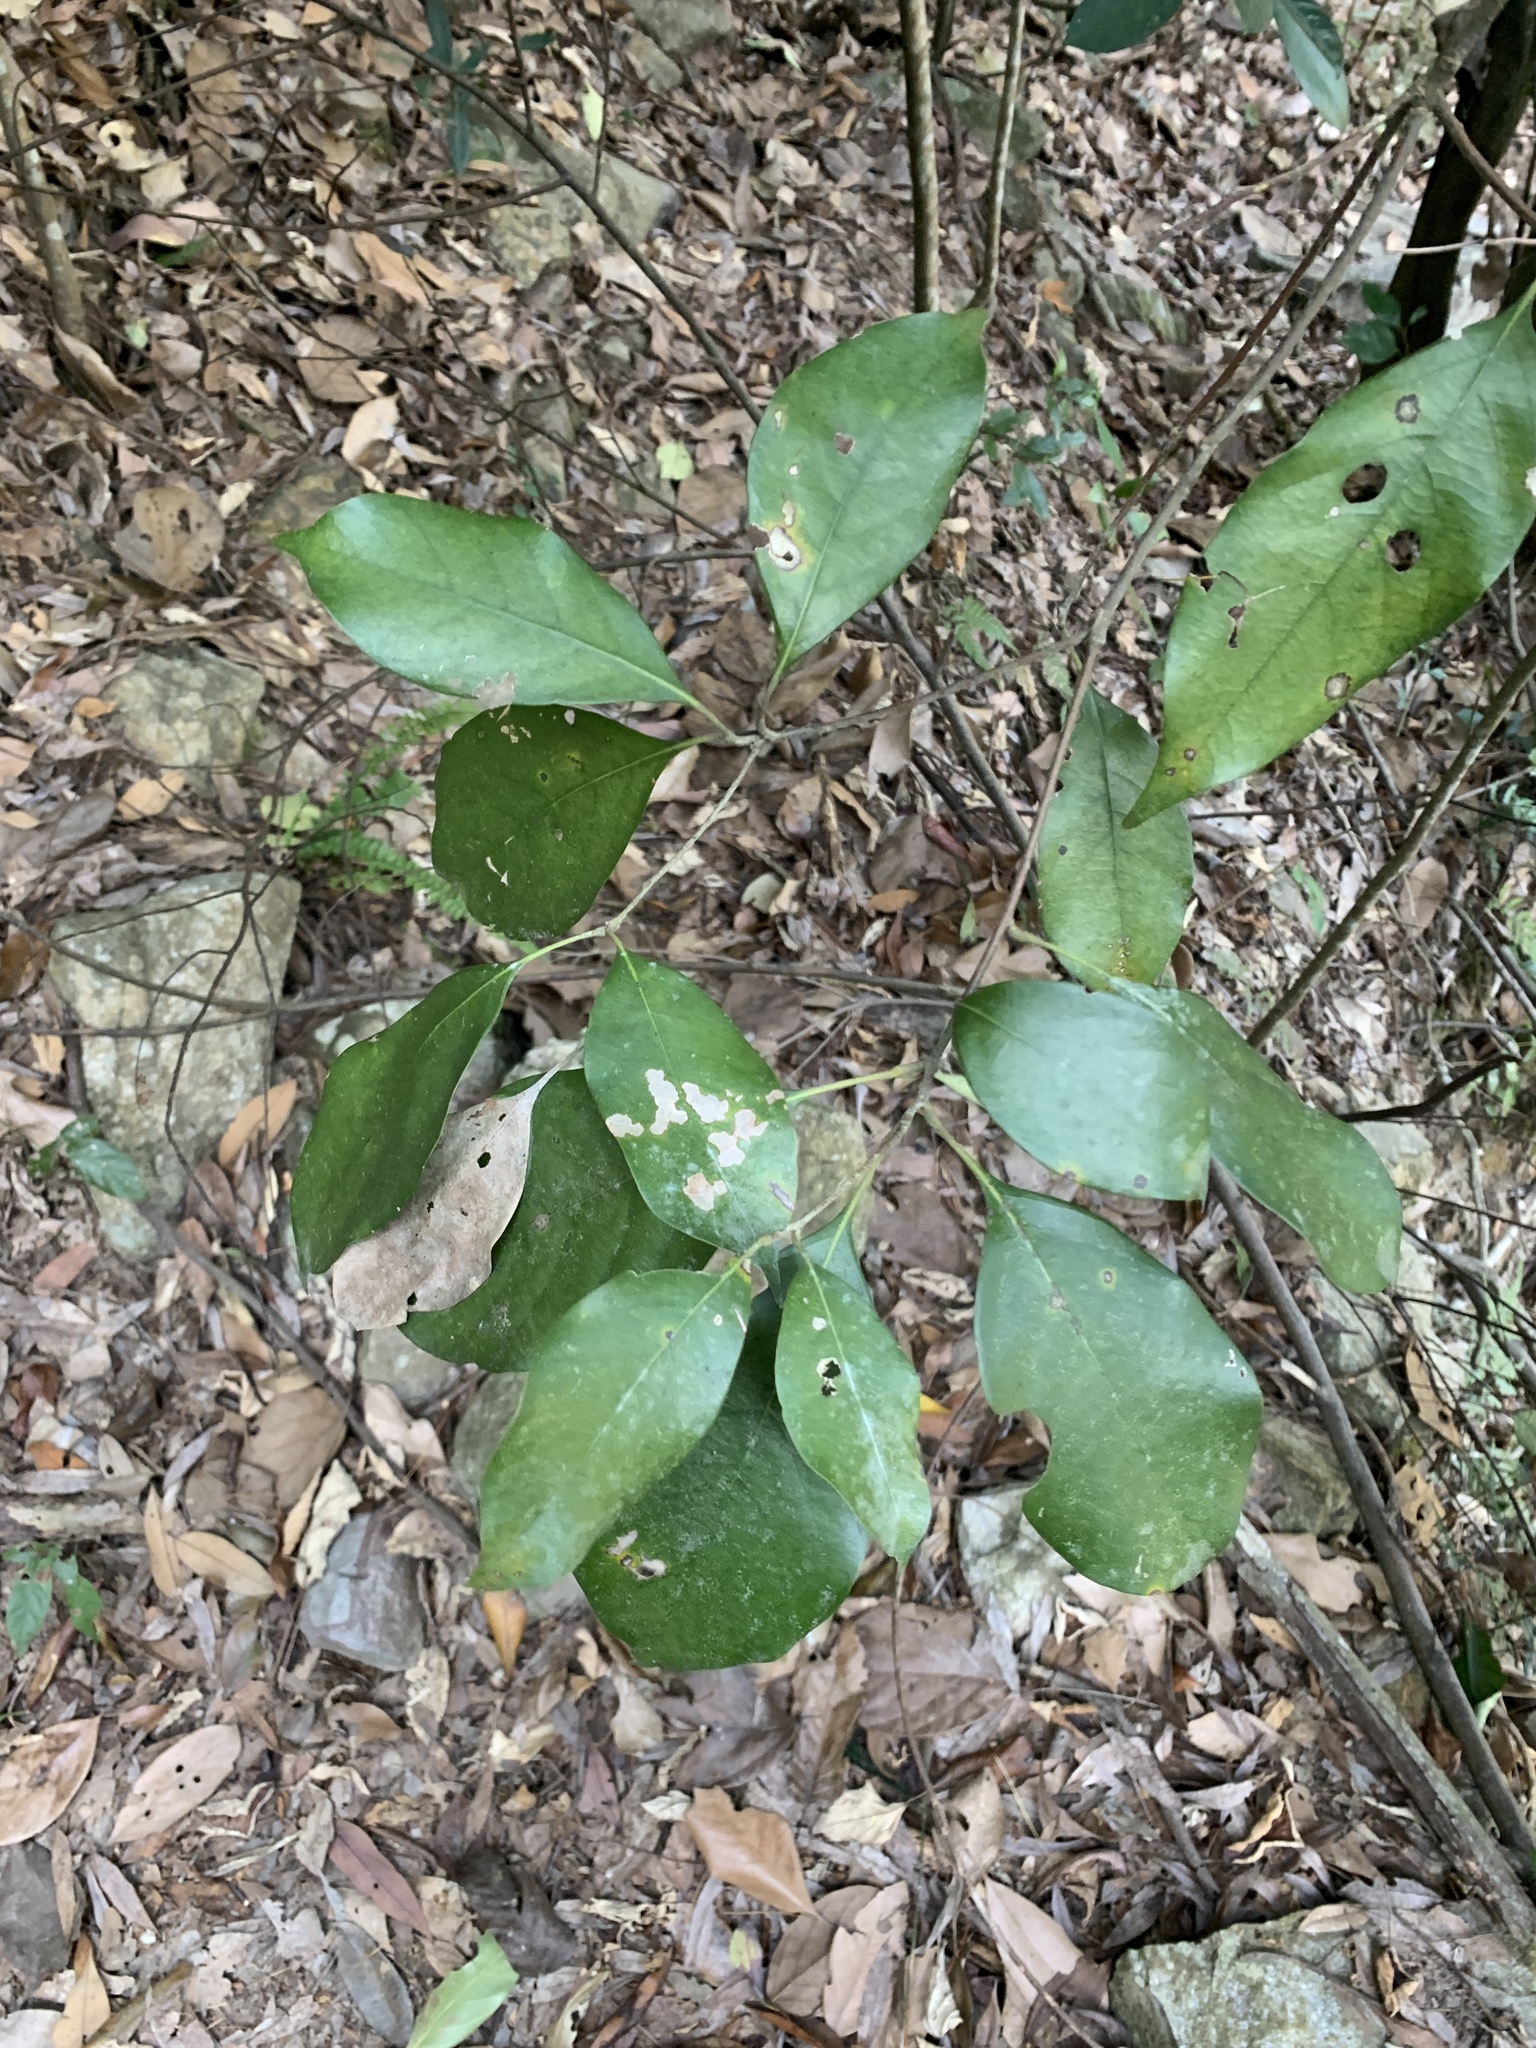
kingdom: Plantae
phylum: Tracheophyta
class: Magnoliopsida
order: Fagales
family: Fagaceae
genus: Lithocarpus
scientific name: Lithocarpus taitoensis
